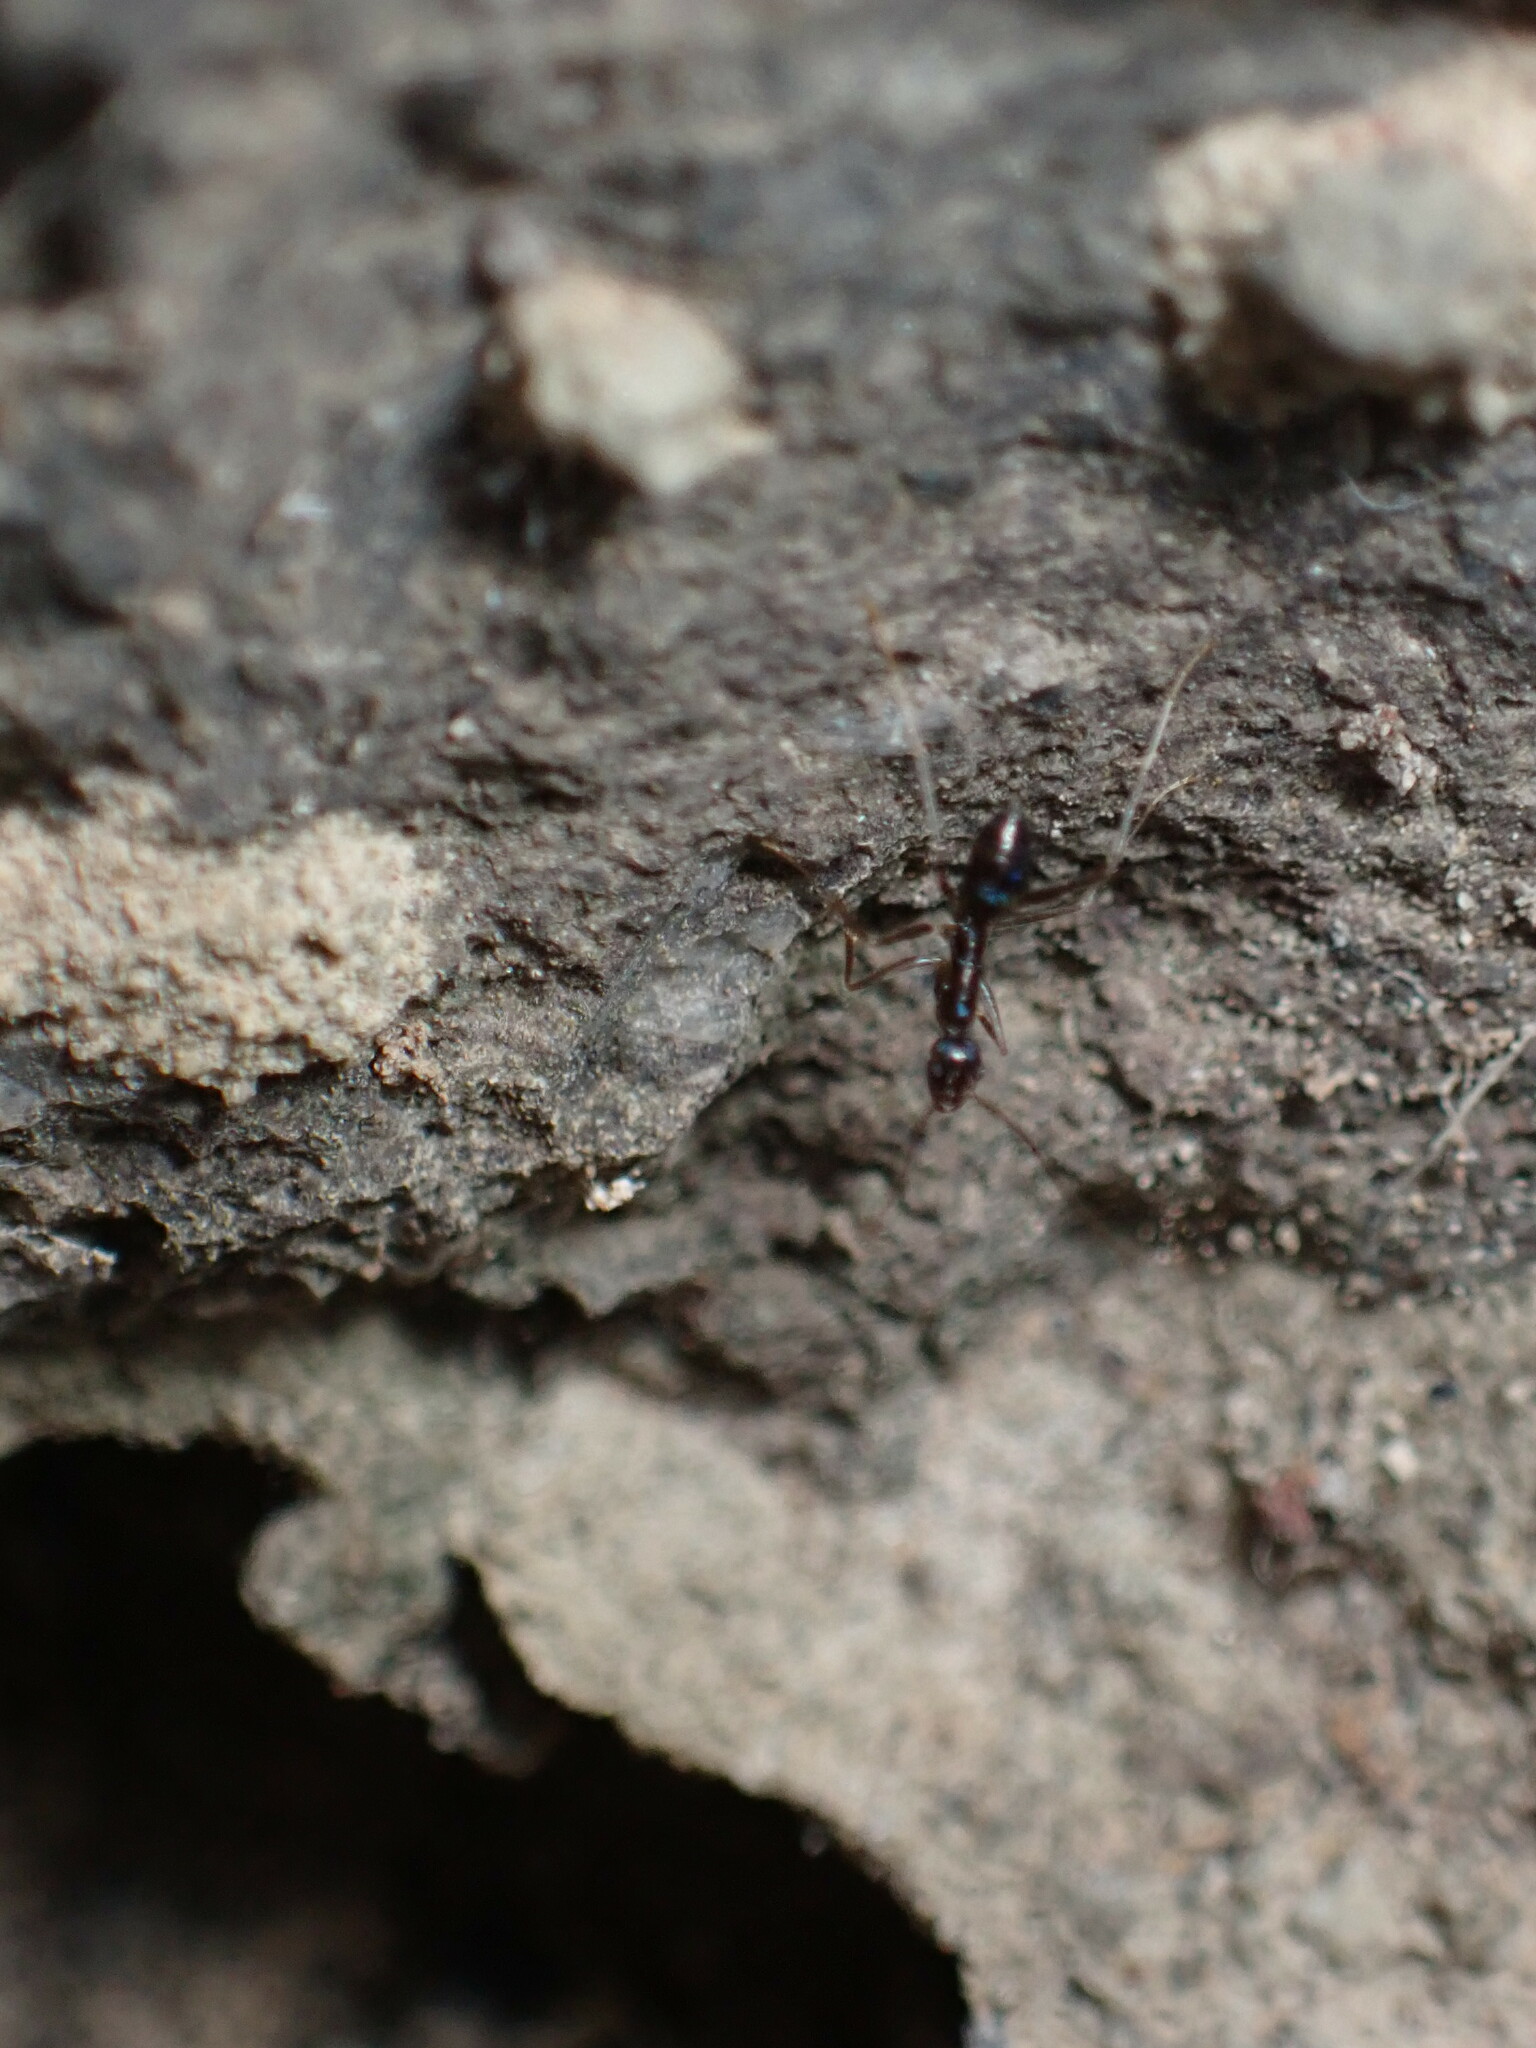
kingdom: Animalia
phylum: Arthropoda
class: Insecta
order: Hymenoptera
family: Formicidae
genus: Paratrechina
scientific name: Paratrechina longicornis
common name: Longhorned crazy ant
